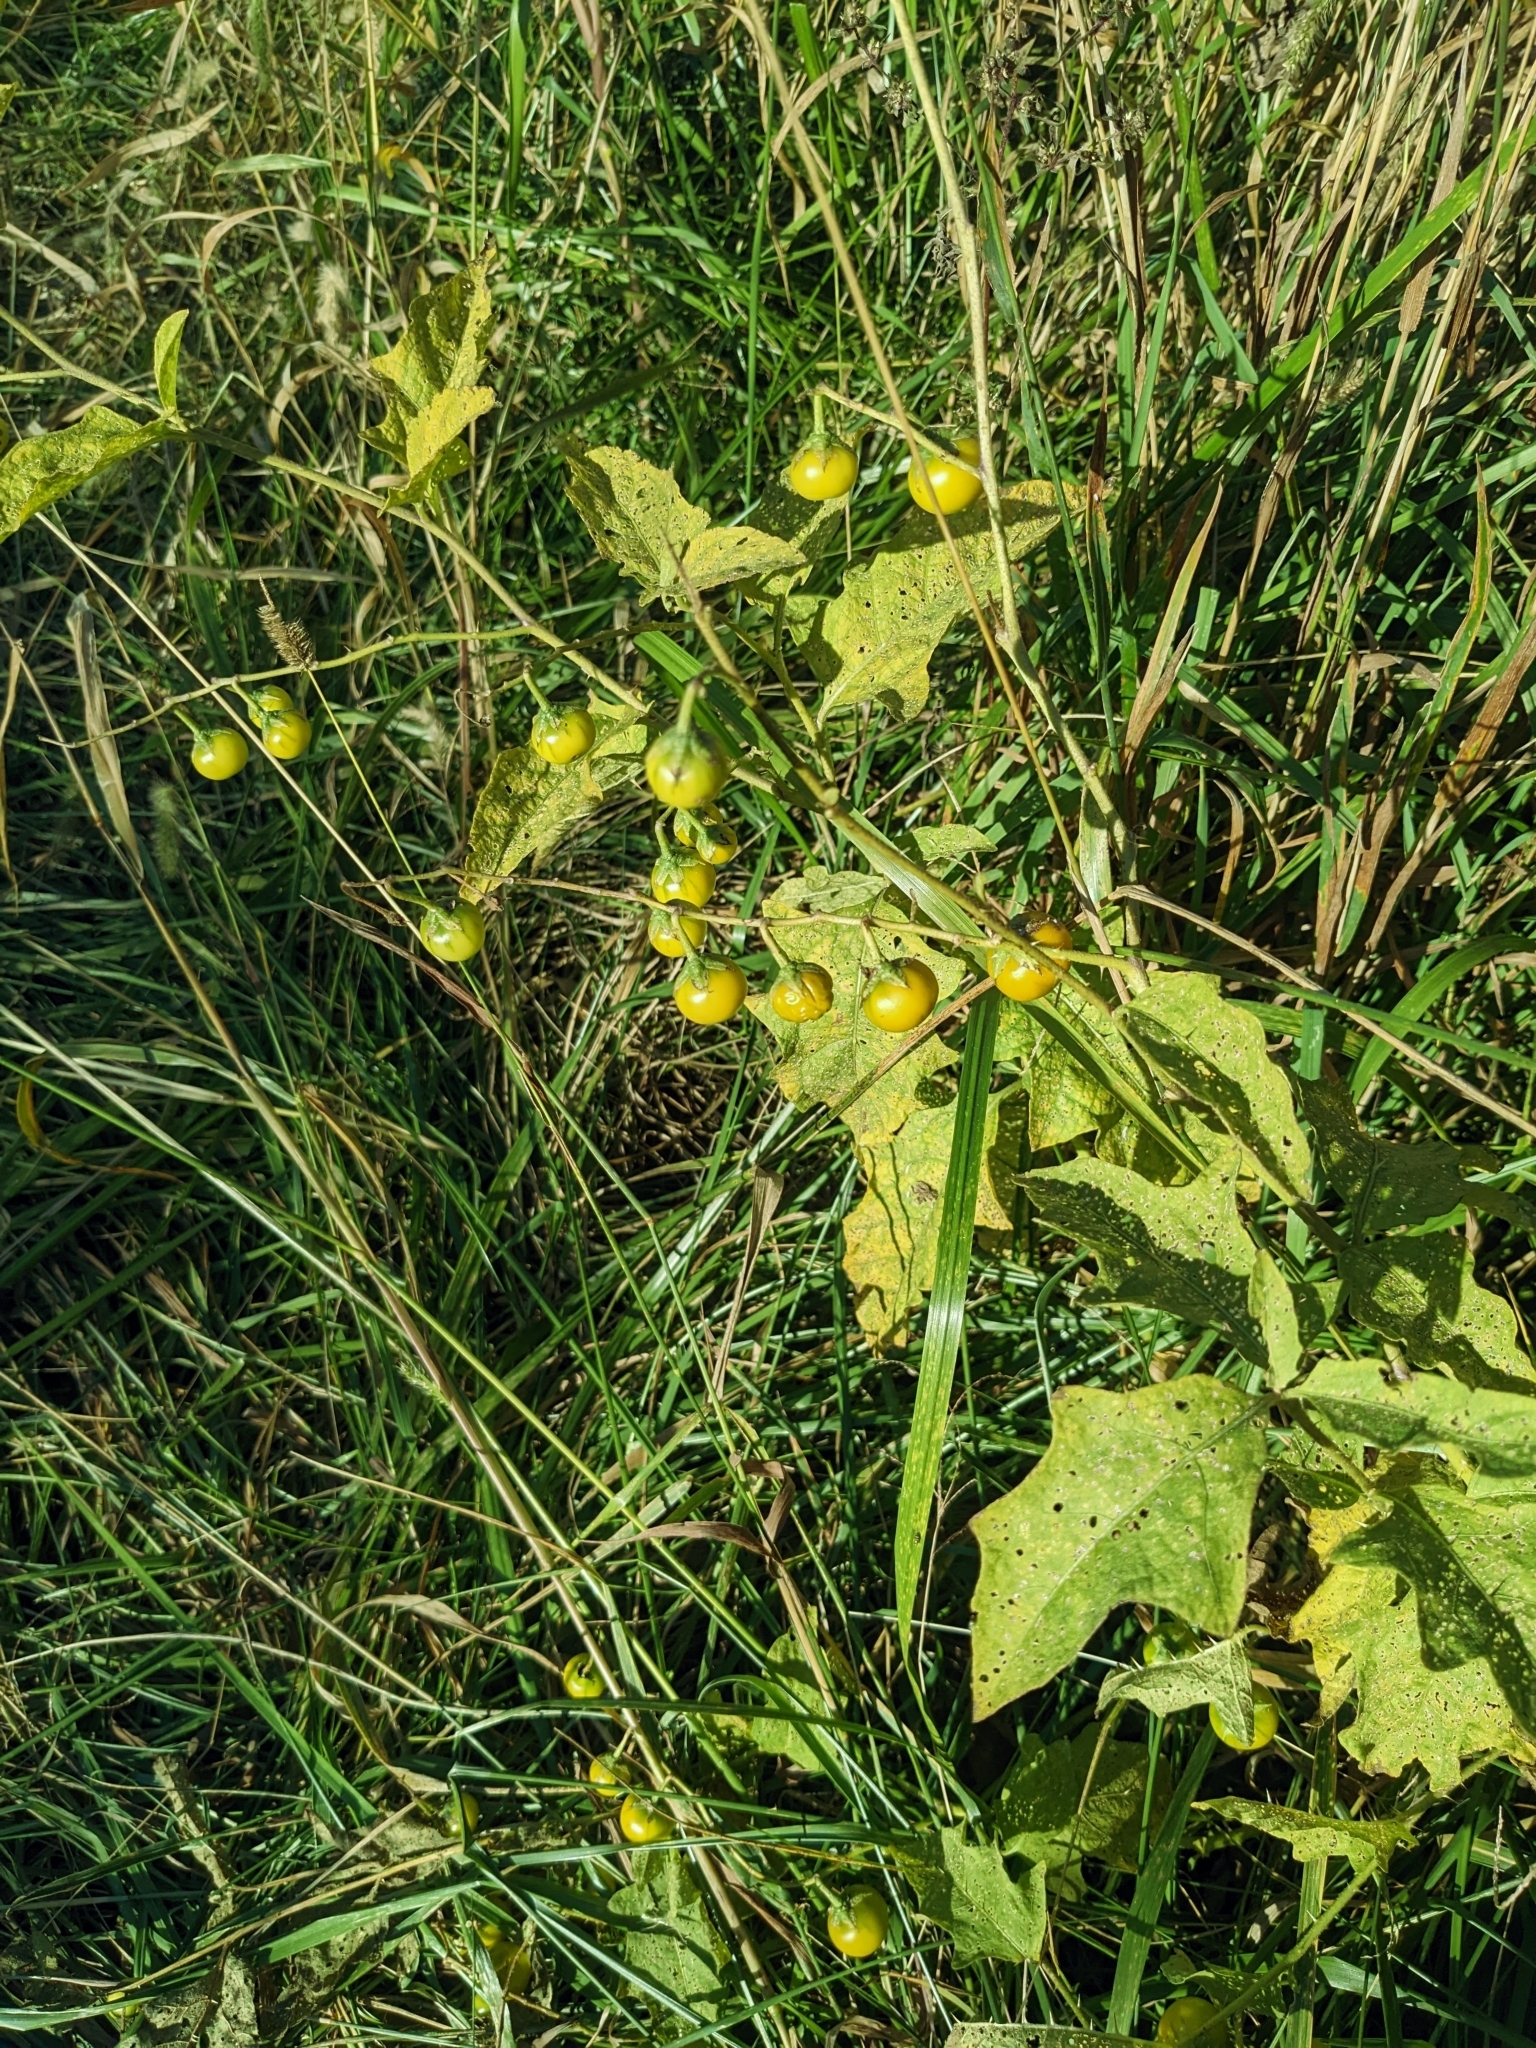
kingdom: Plantae
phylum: Tracheophyta
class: Magnoliopsida
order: Solanales
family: Solanaceae
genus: Solanum
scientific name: Solanum carolinense
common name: Horse-nettle
